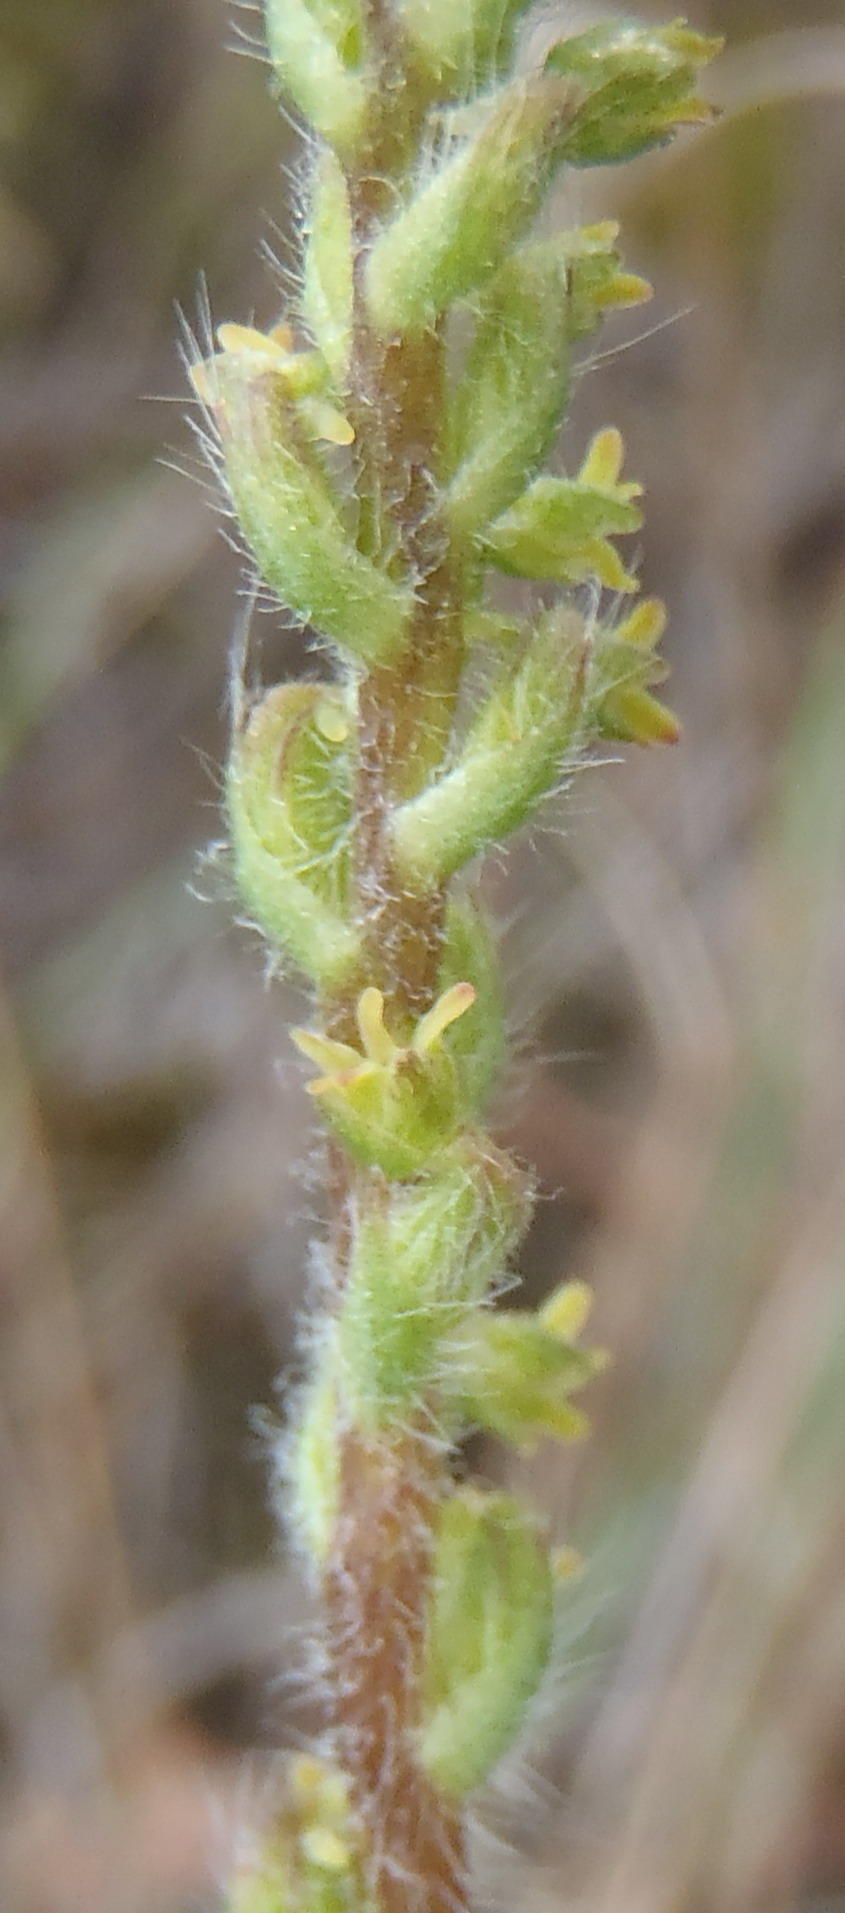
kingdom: Plantae
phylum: Tracheophyta
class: Liliopsida
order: Asparagales
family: Orchidaceae
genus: Holothrix
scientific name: Holothrix villosa
